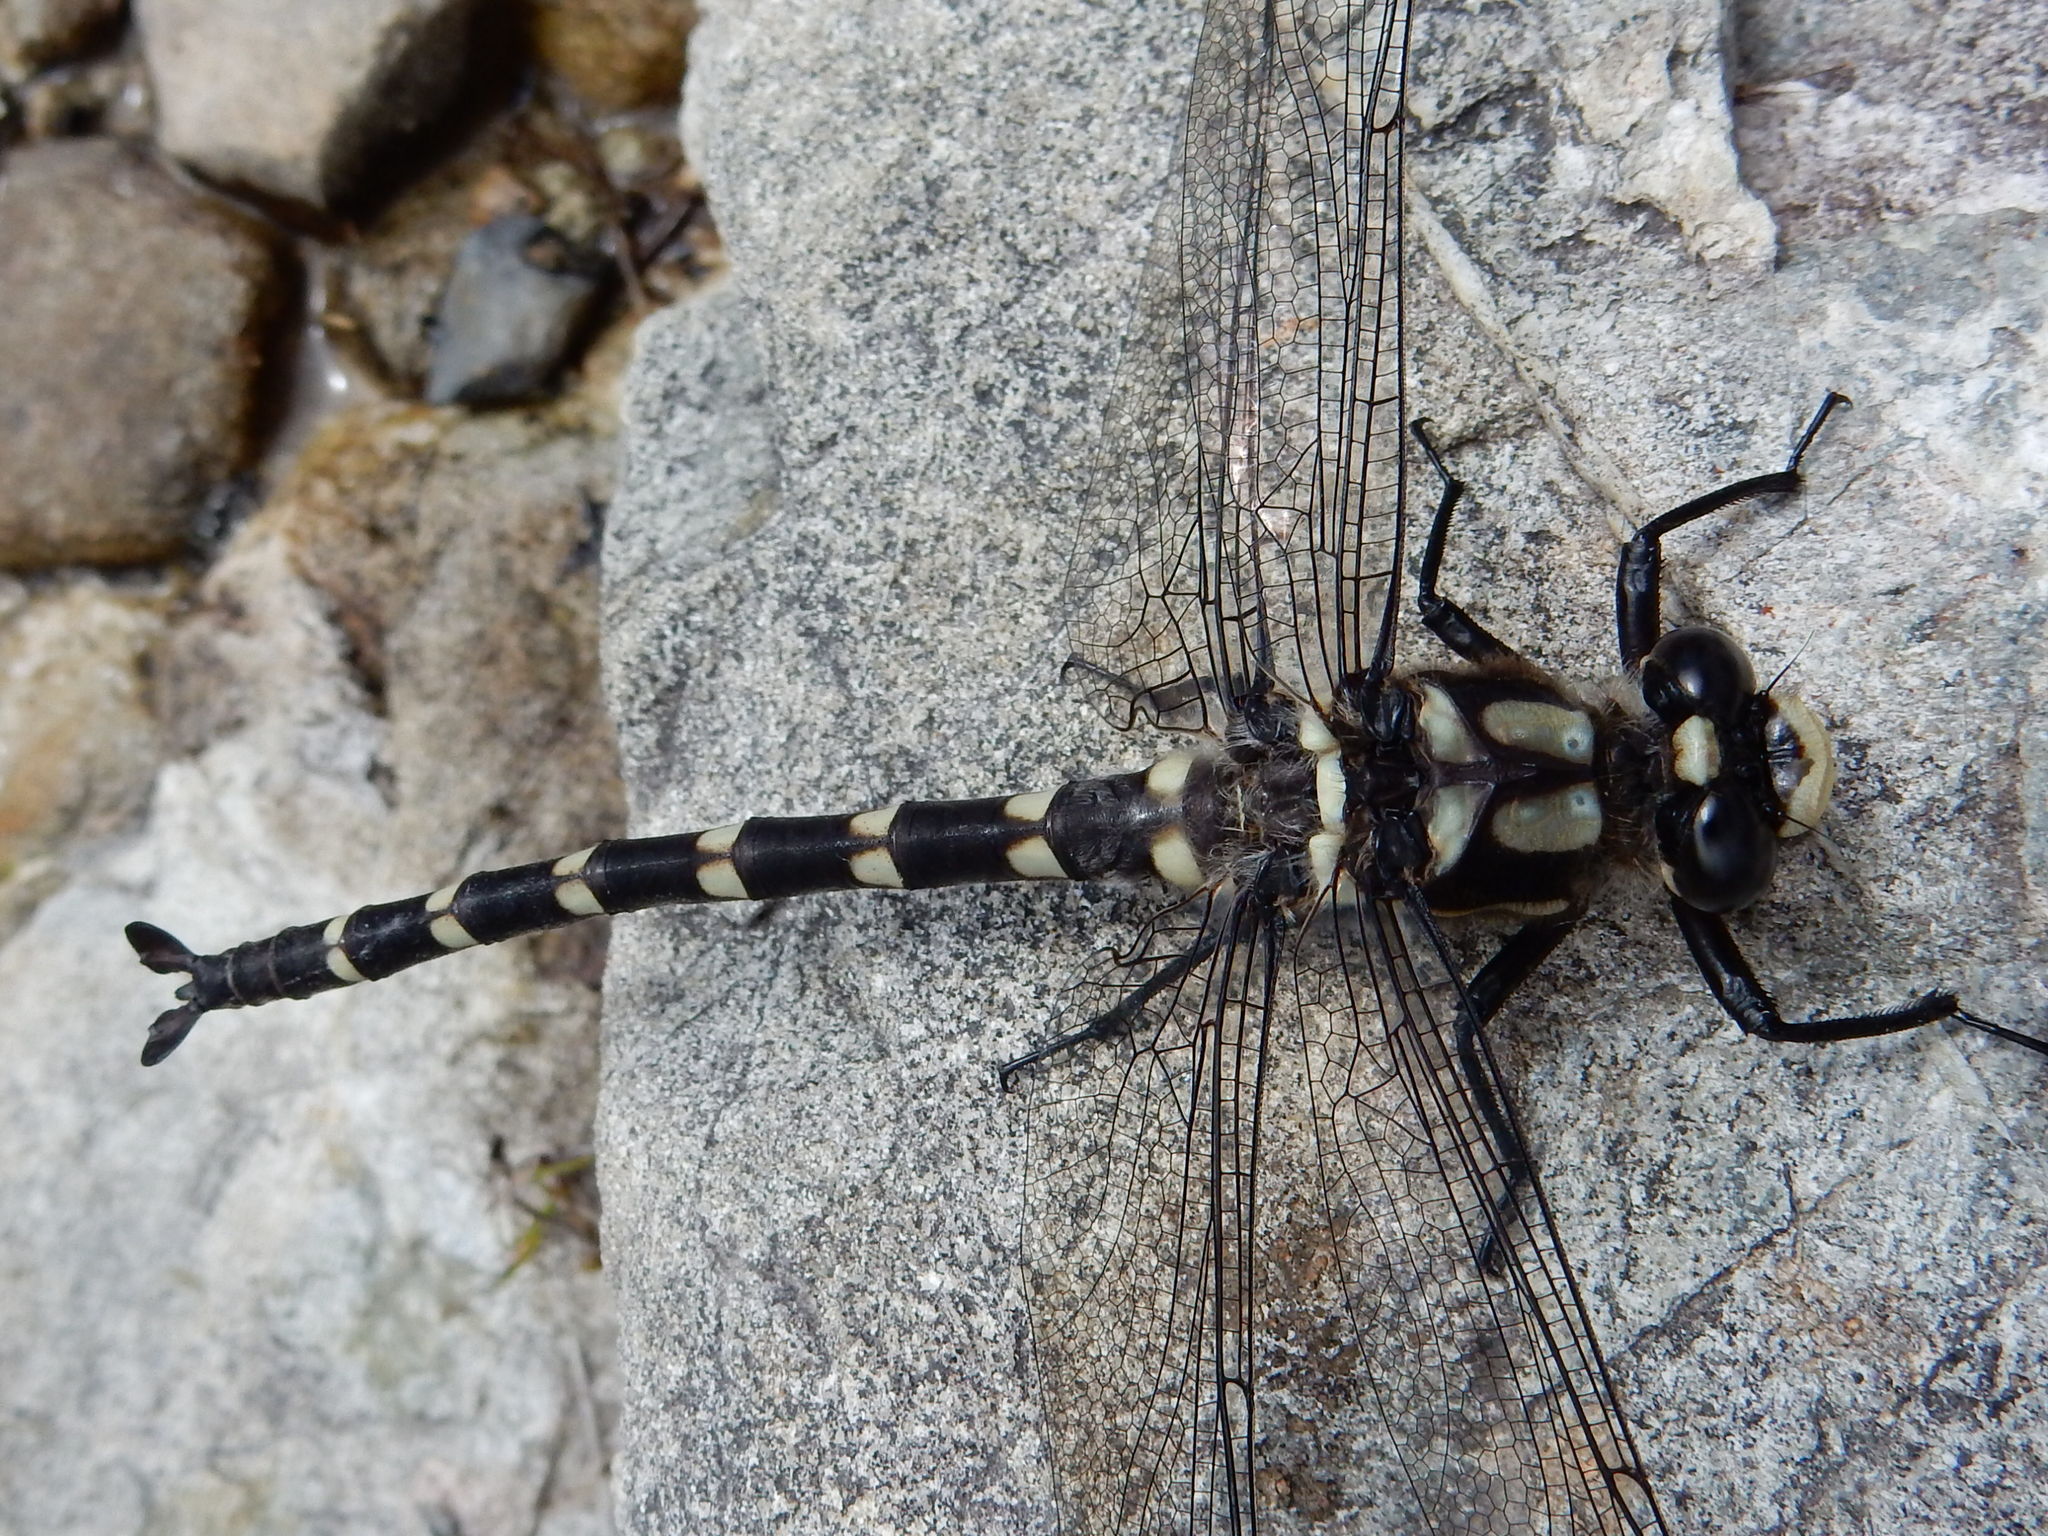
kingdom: Animalia
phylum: Arthropoda
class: Insecta
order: Odonata
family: Petaluridae
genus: Uropetala
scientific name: Uropetala chiltoni
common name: Mountain giant dragonfly
